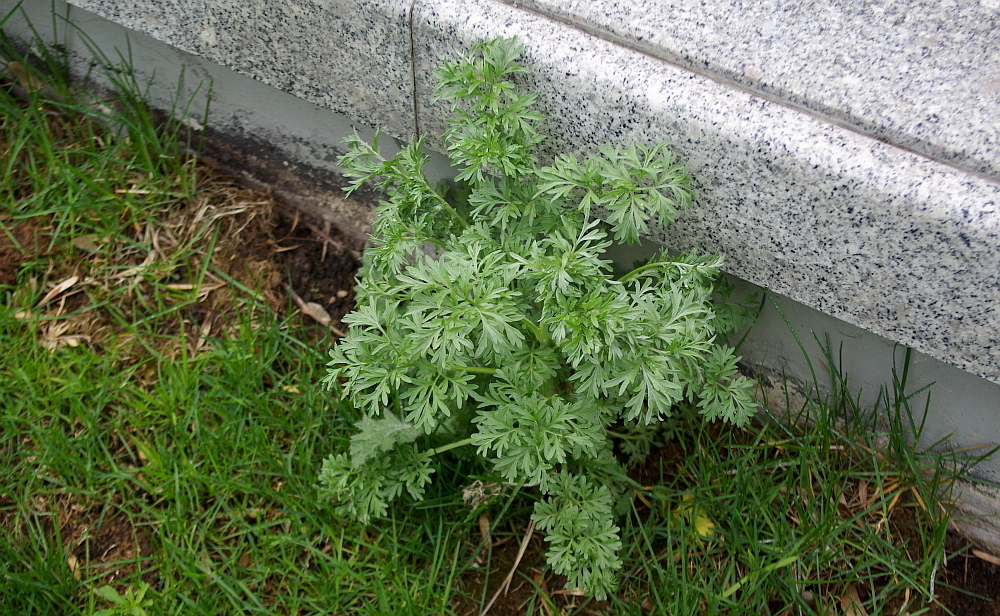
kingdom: Plantae
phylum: Tracheophyta
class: Magnoliopsida
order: Asterales
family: Asteraceae
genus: Artemisia
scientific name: Artemisia absinthium
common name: Wormwood
